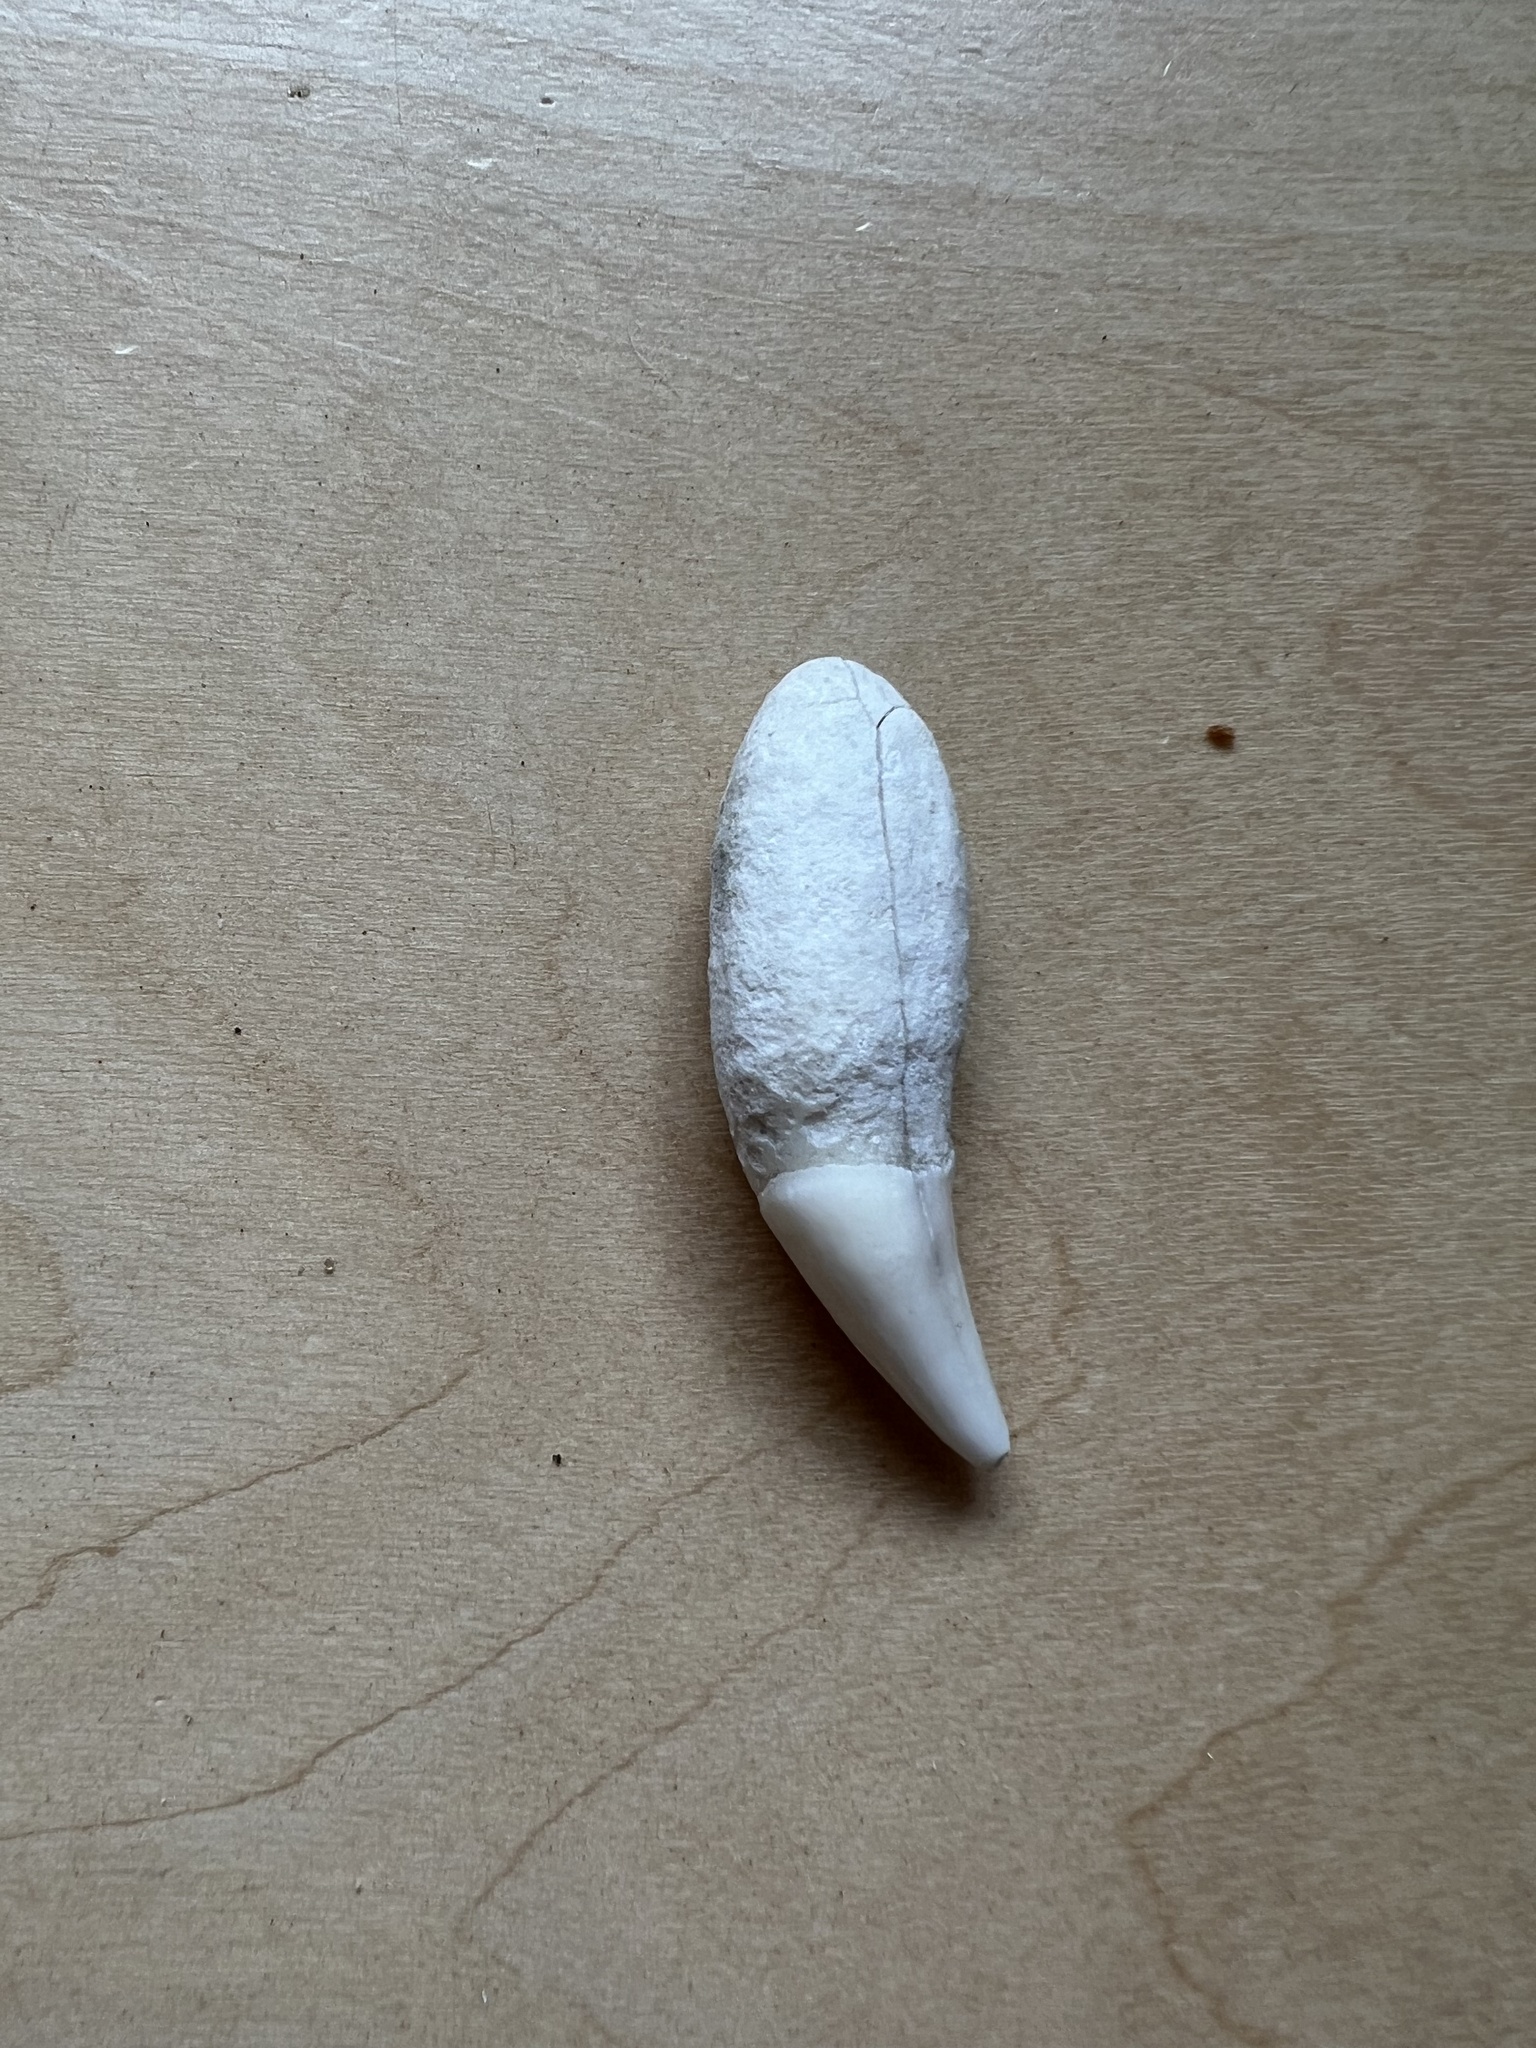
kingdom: Animalia
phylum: Chordata
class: Mammalia
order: Carnivora
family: Phocidae
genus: Mirounga
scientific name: Mirounga leonina
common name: Southern elephant seal
